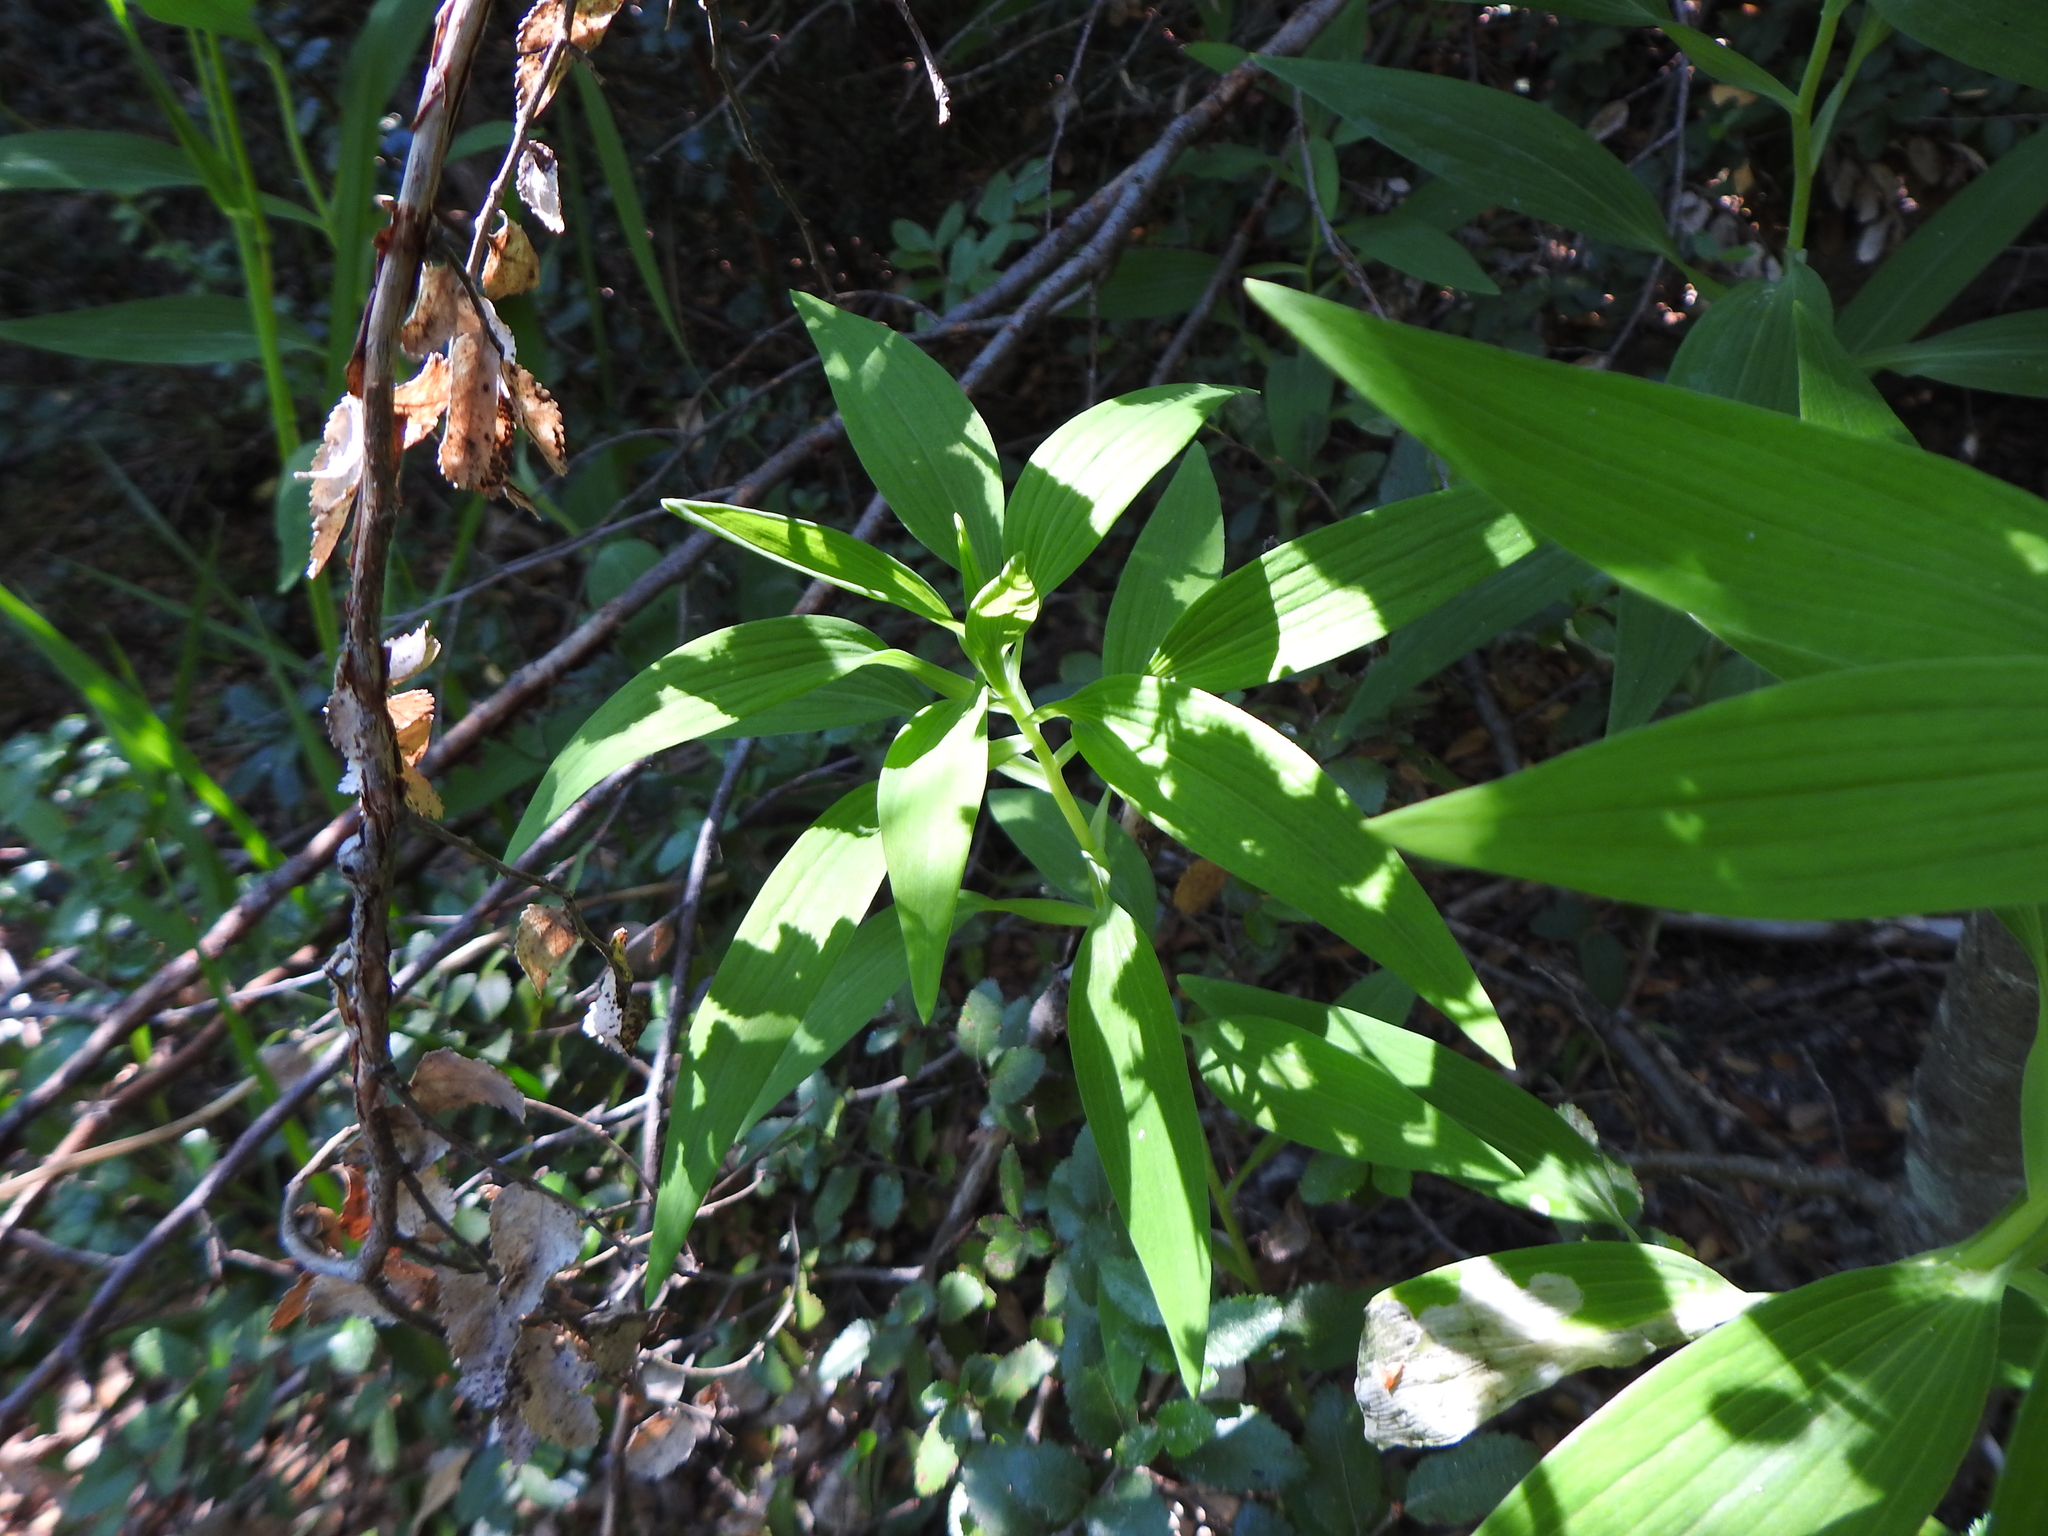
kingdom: Plantae
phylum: Tracheophyta
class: Liliopsida
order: Liliales
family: Alstroemeriaceae
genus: Alstroemeria
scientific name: Alstroemeria aurea
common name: Peruvian lily
